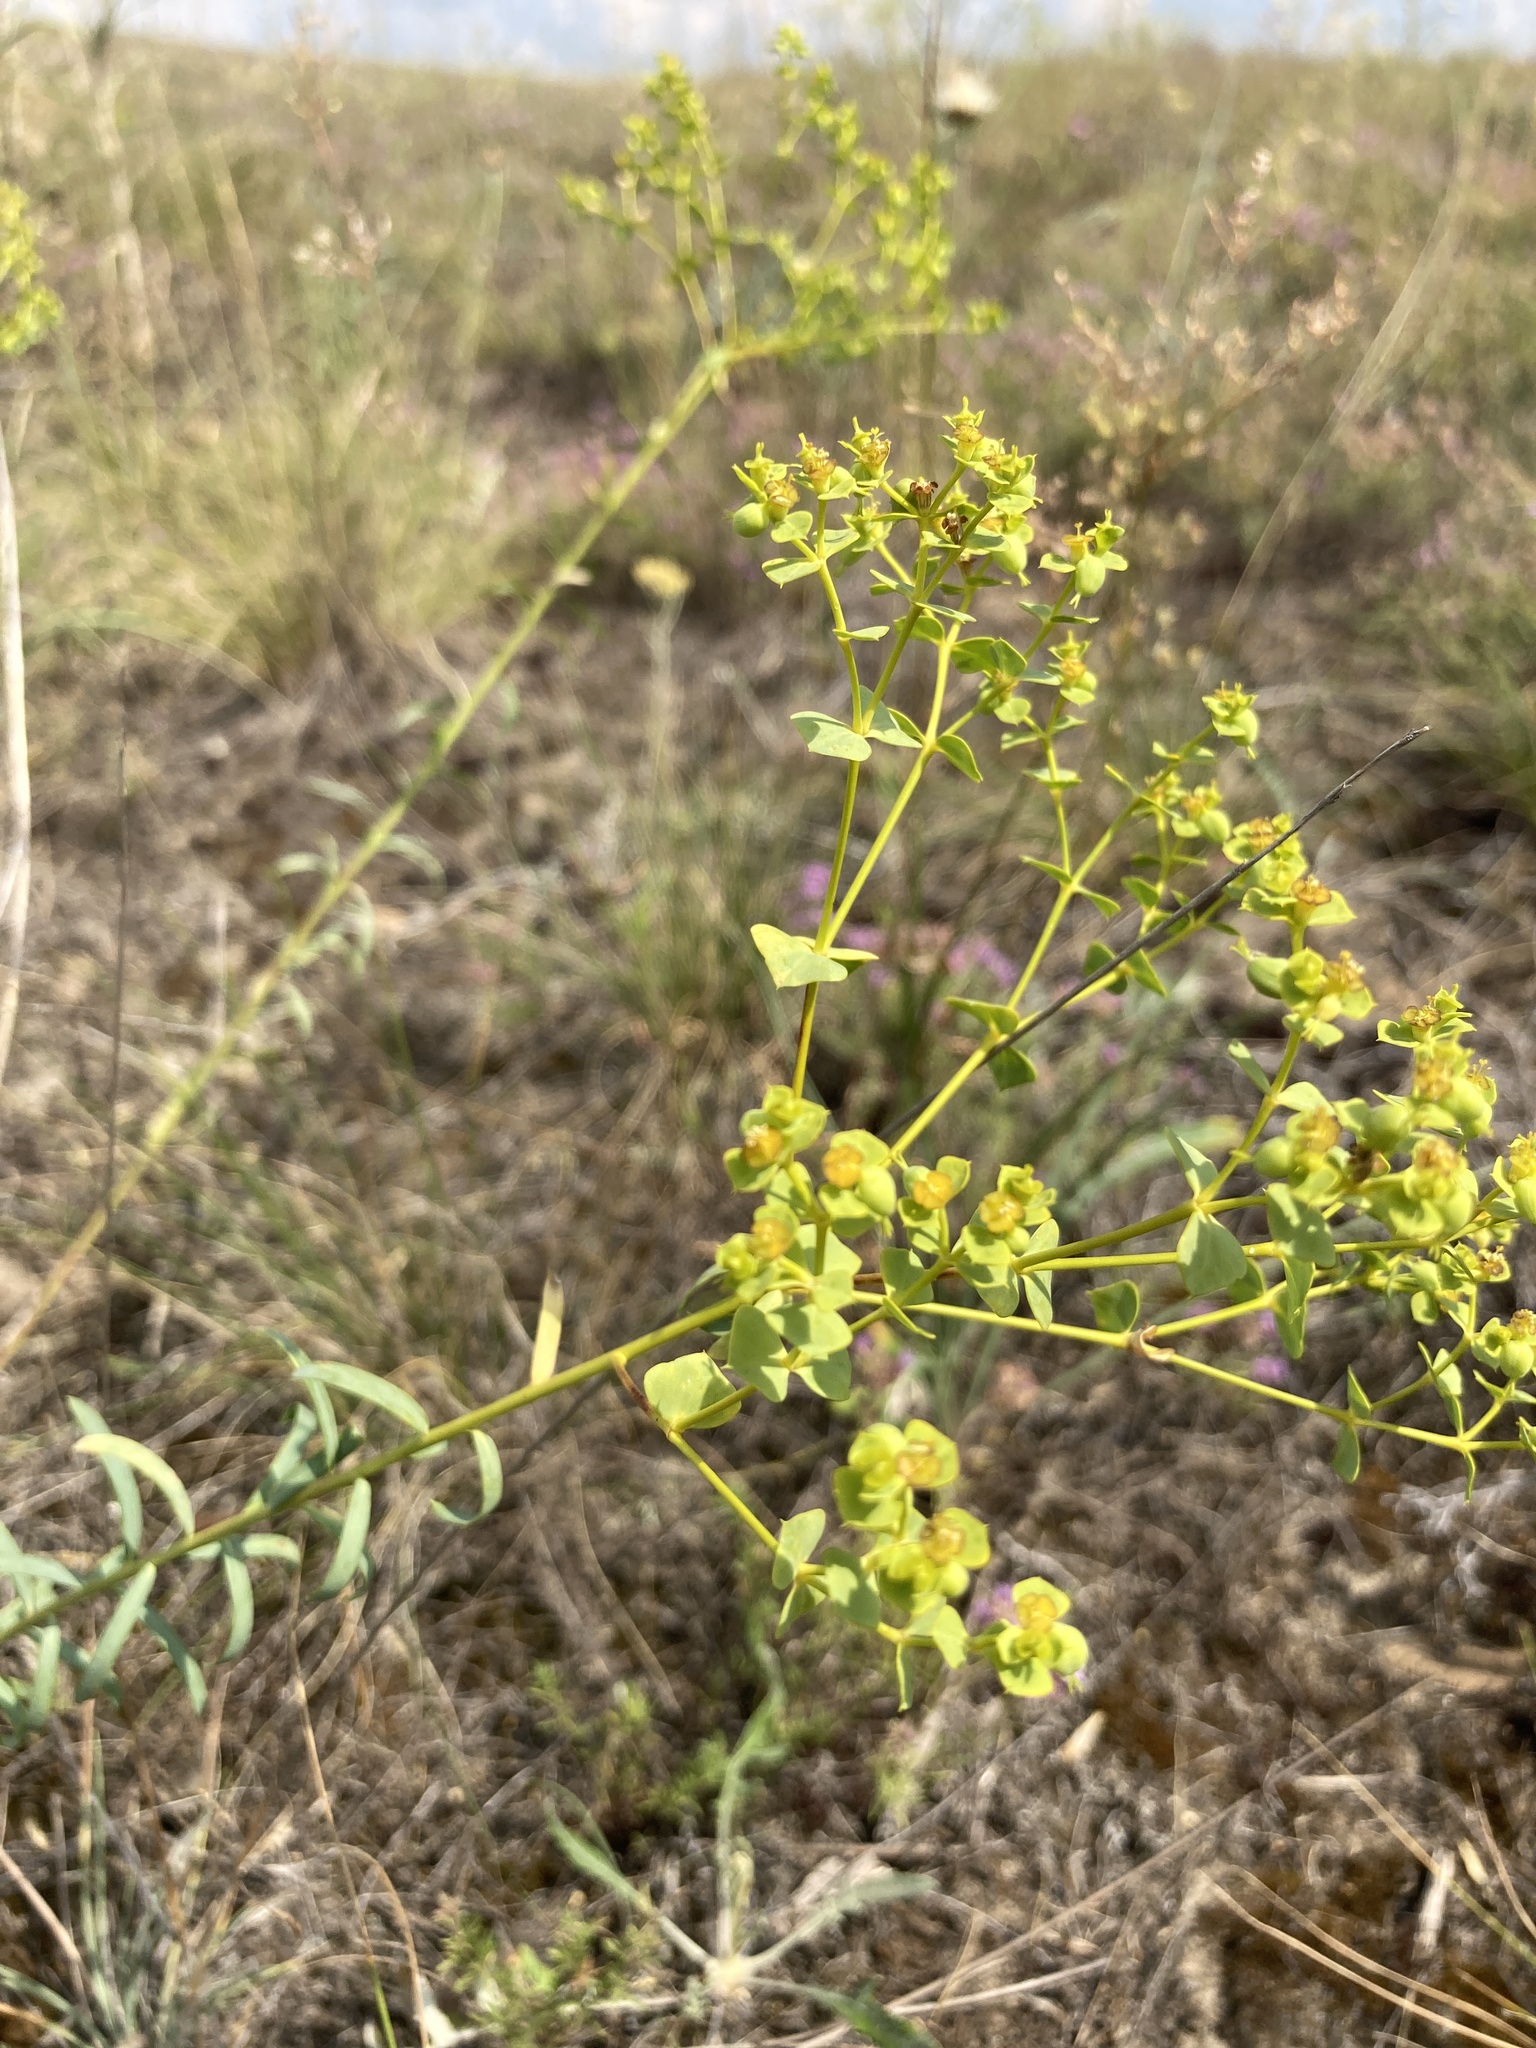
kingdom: Plantae
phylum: Tracheophyta
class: Magnoliopsida
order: Malpighiales
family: Euphorbiaceae
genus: Euphorbia
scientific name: Euphorbia seguieriana
